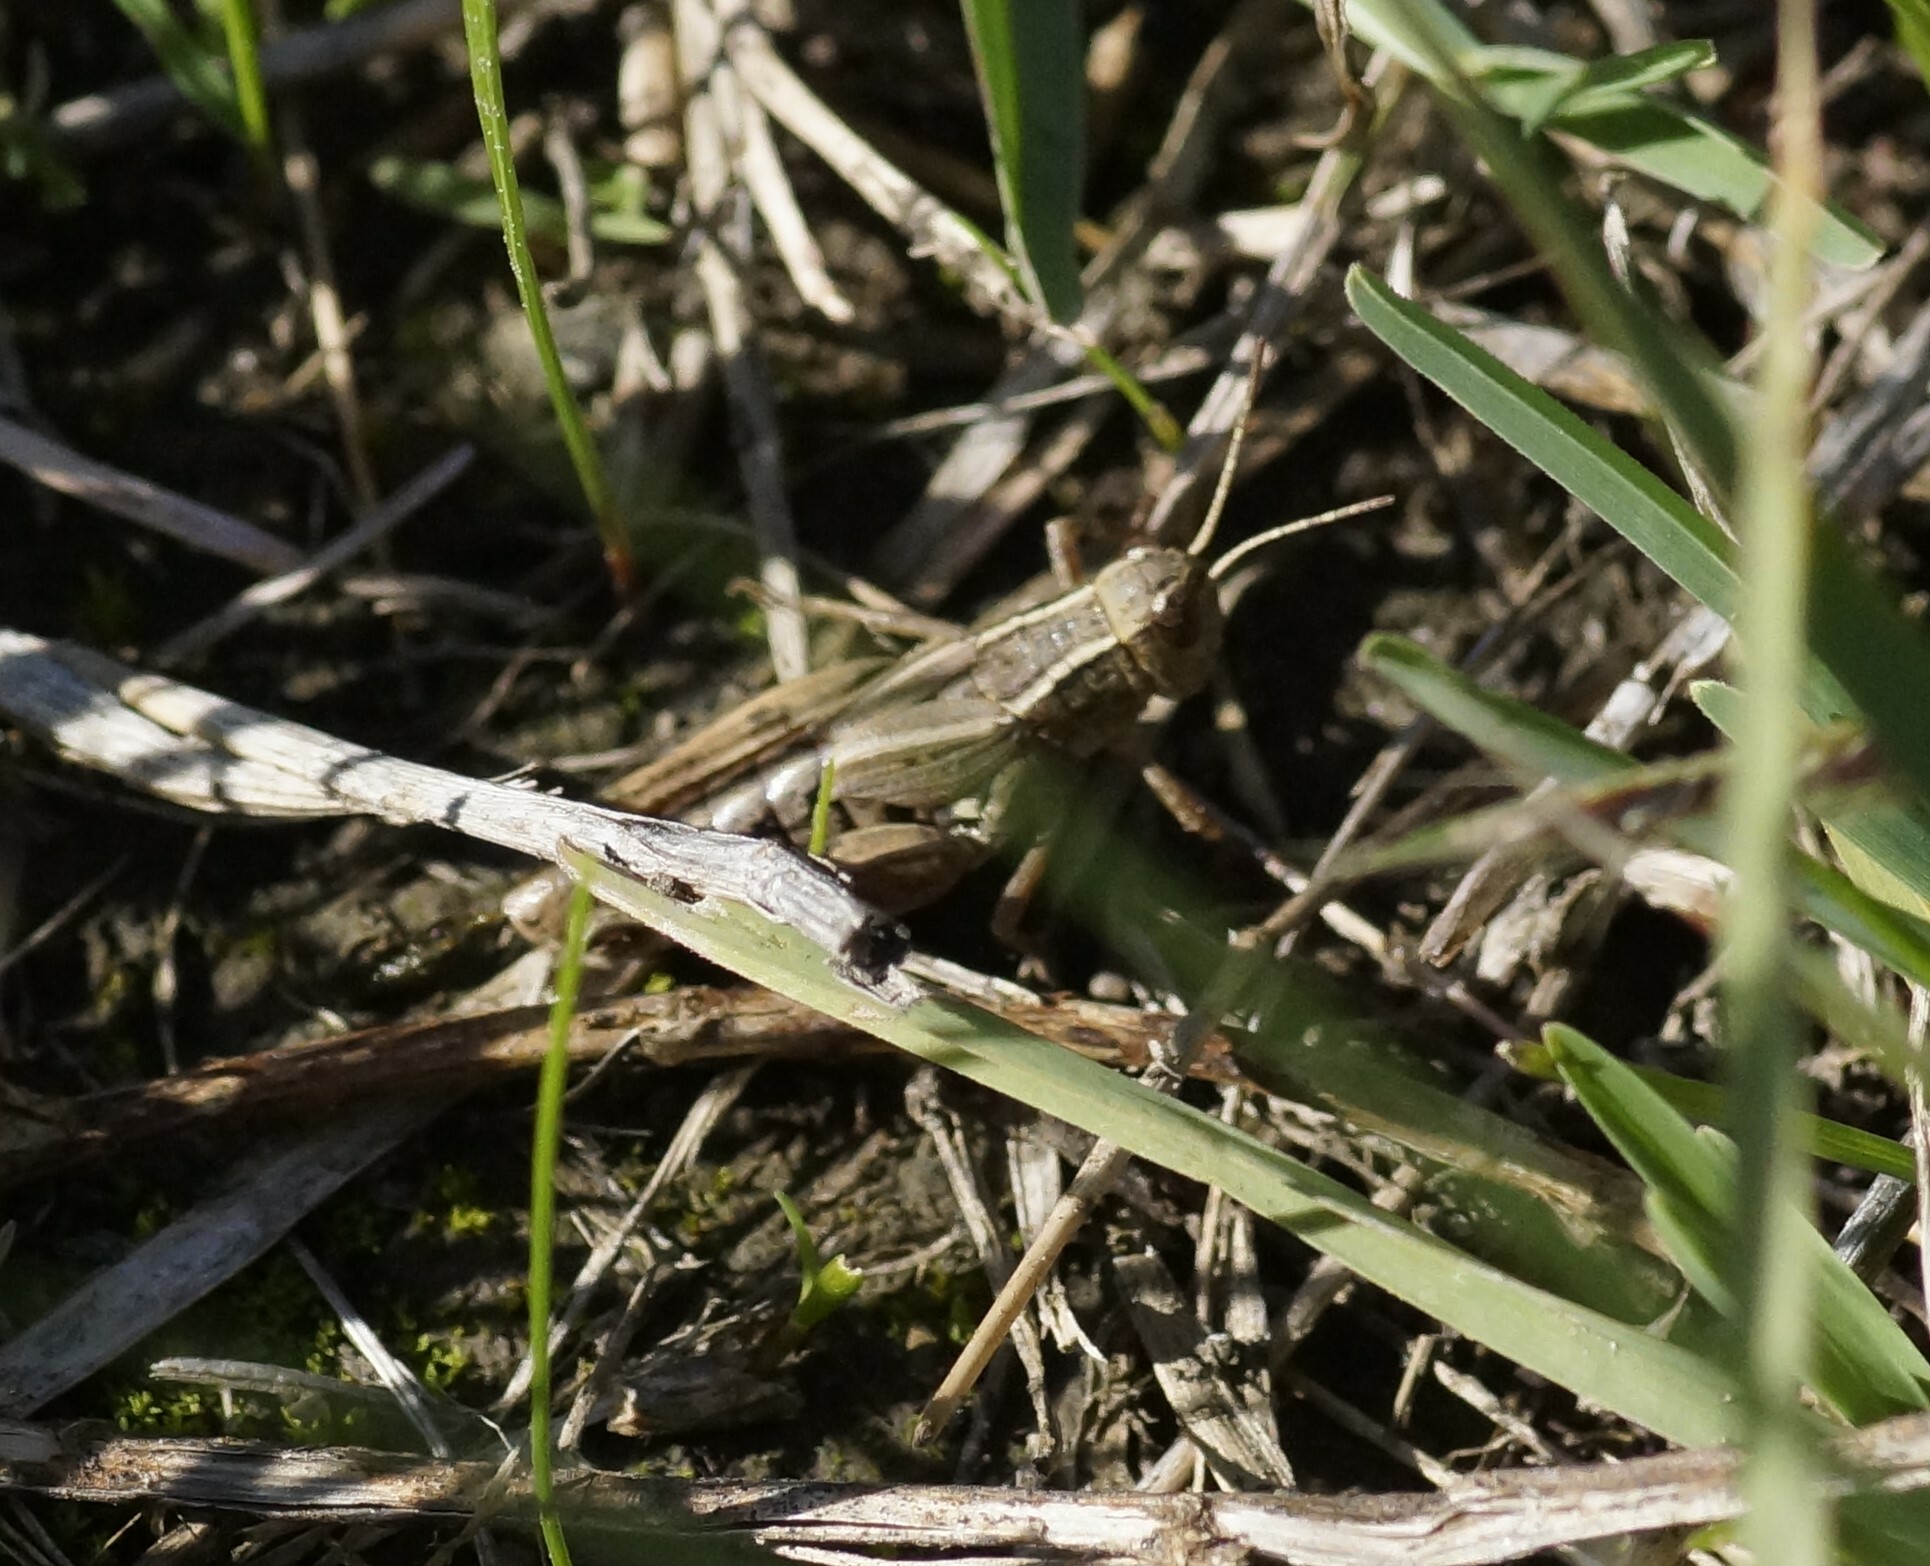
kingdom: Animalia
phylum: Arthropoda
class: Insecta
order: Orthoptera
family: Acrididae
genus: Phaulacridium
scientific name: Phaulacridium vittatum
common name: Wingless grasshopper
